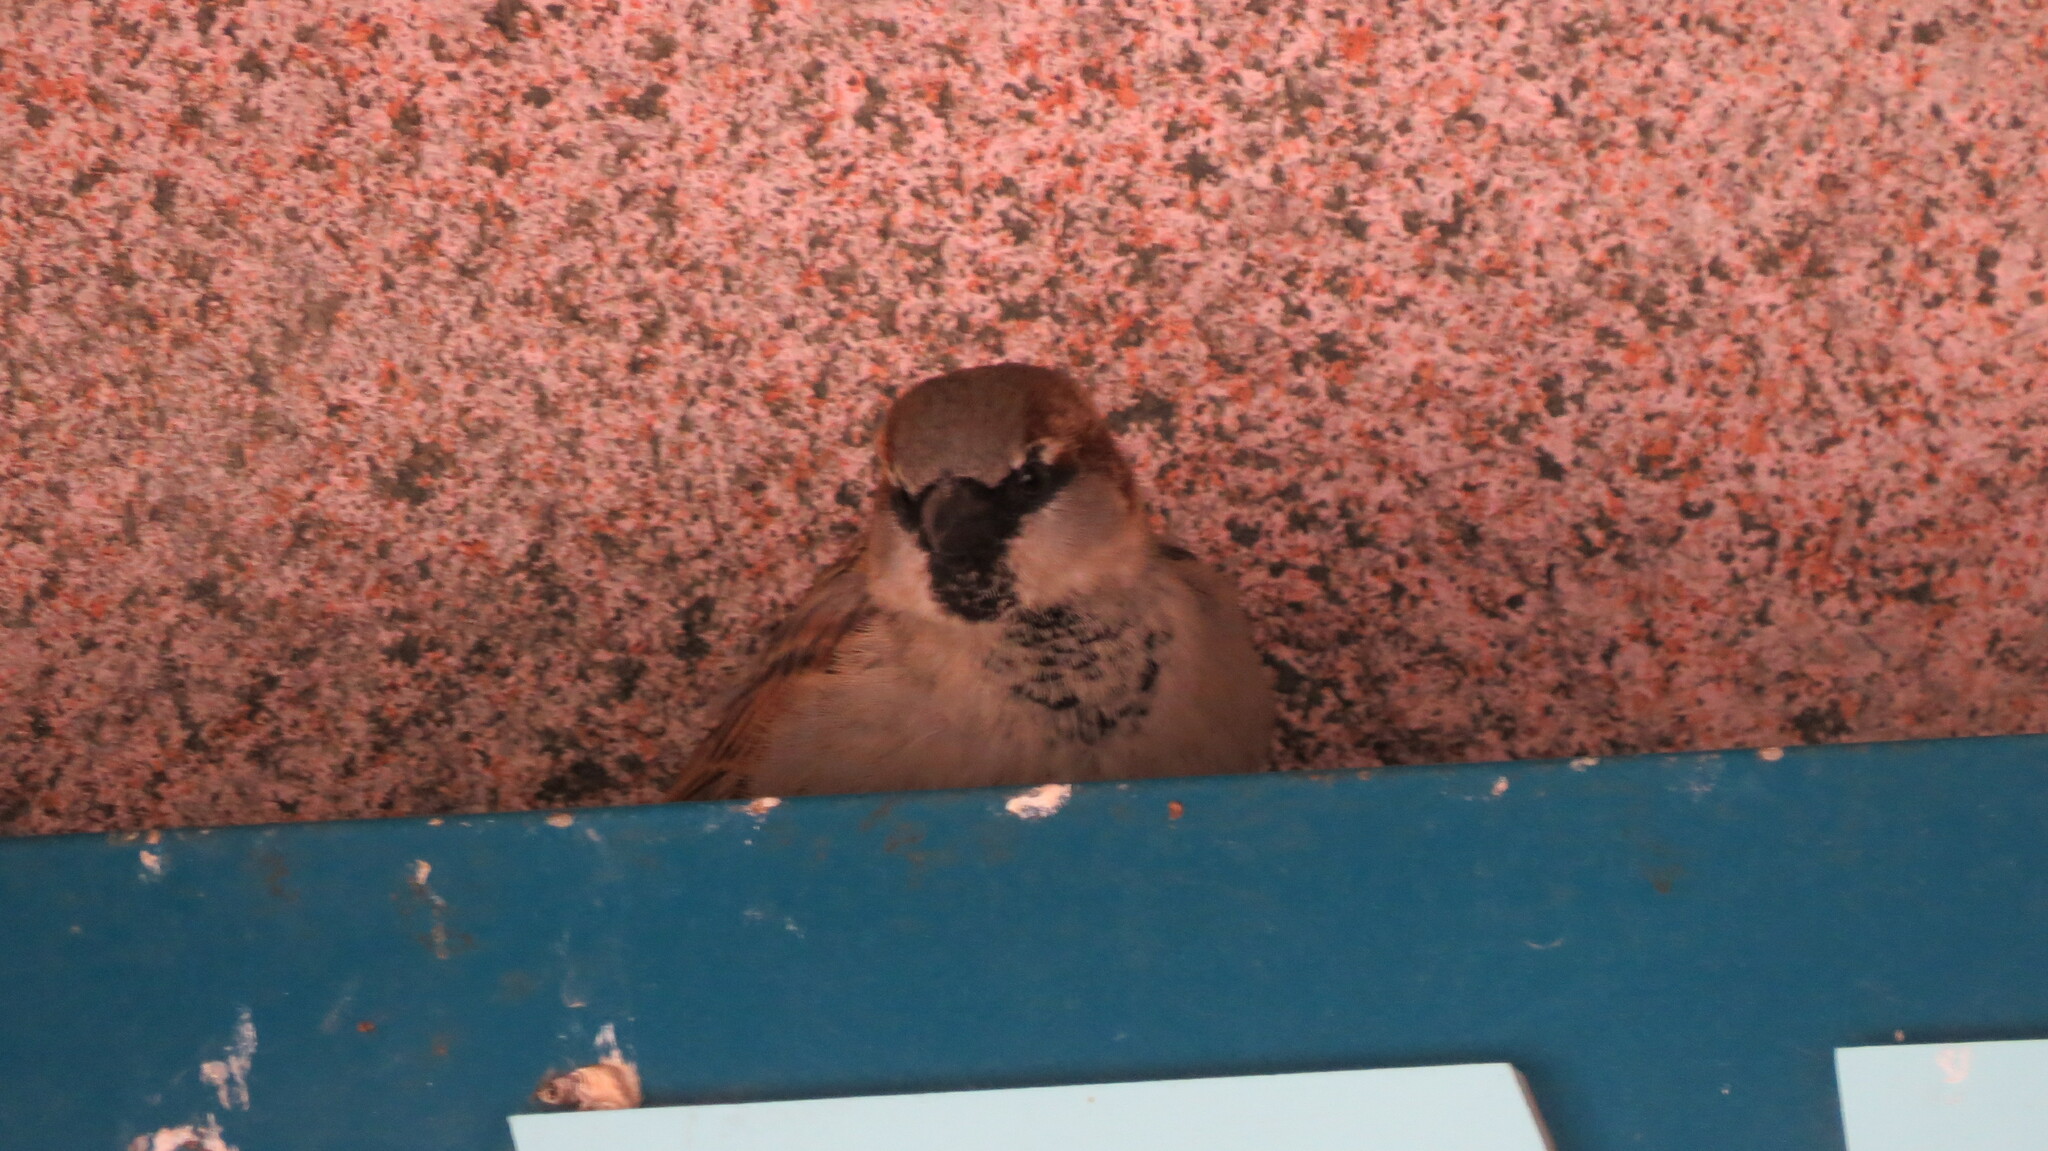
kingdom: Animalia
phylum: Chordata
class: Aves
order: Passeriformes
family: Passeridae
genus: Passer
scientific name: Passer domesticus
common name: House sparrow
